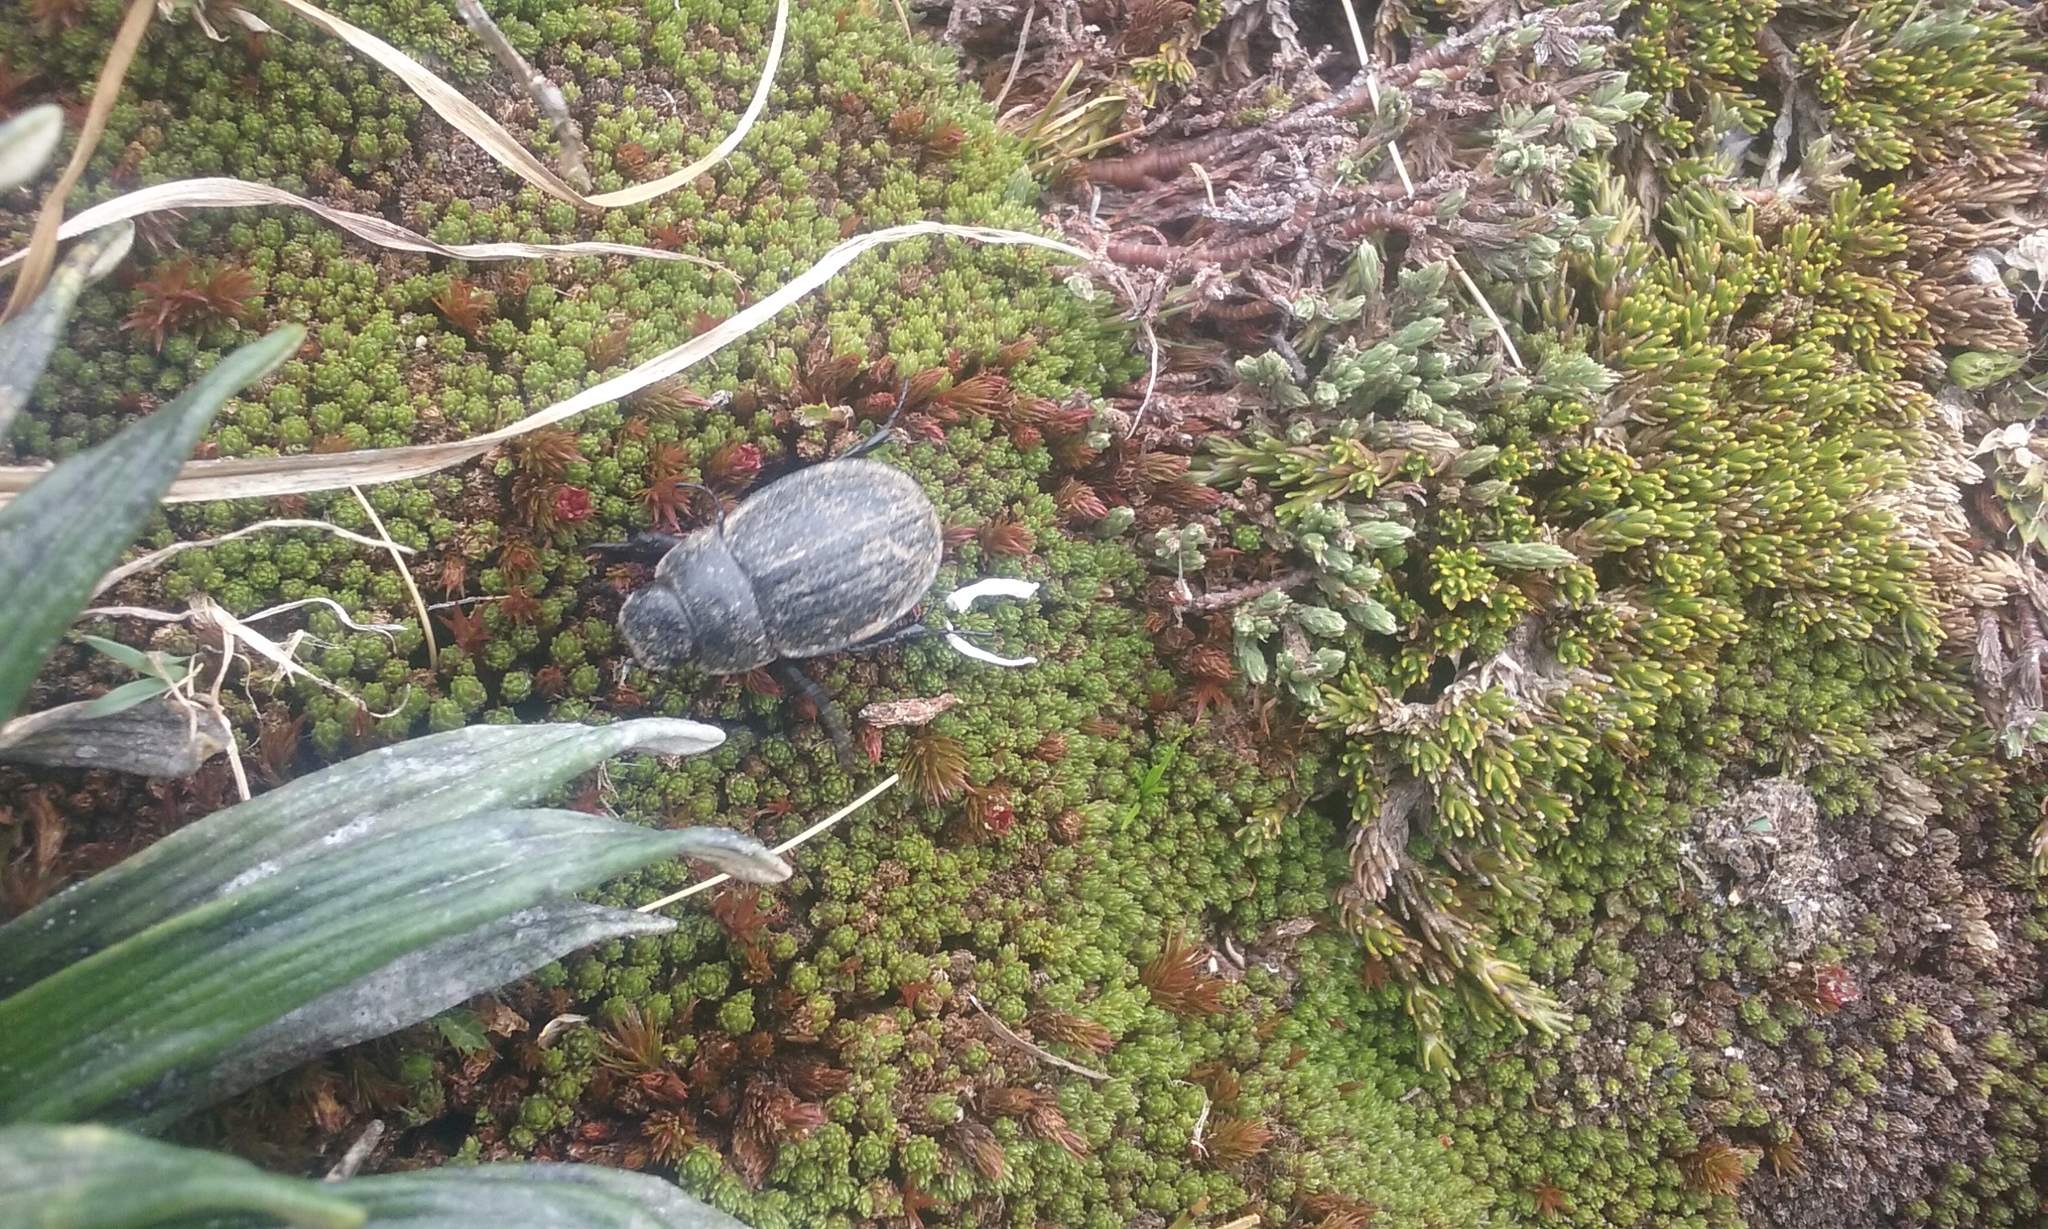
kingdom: Animalia
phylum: Arthropoda
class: Insecta
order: Coleoptera
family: Scarabaeidae
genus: Scythrodes
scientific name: Scythrodes squalidus
